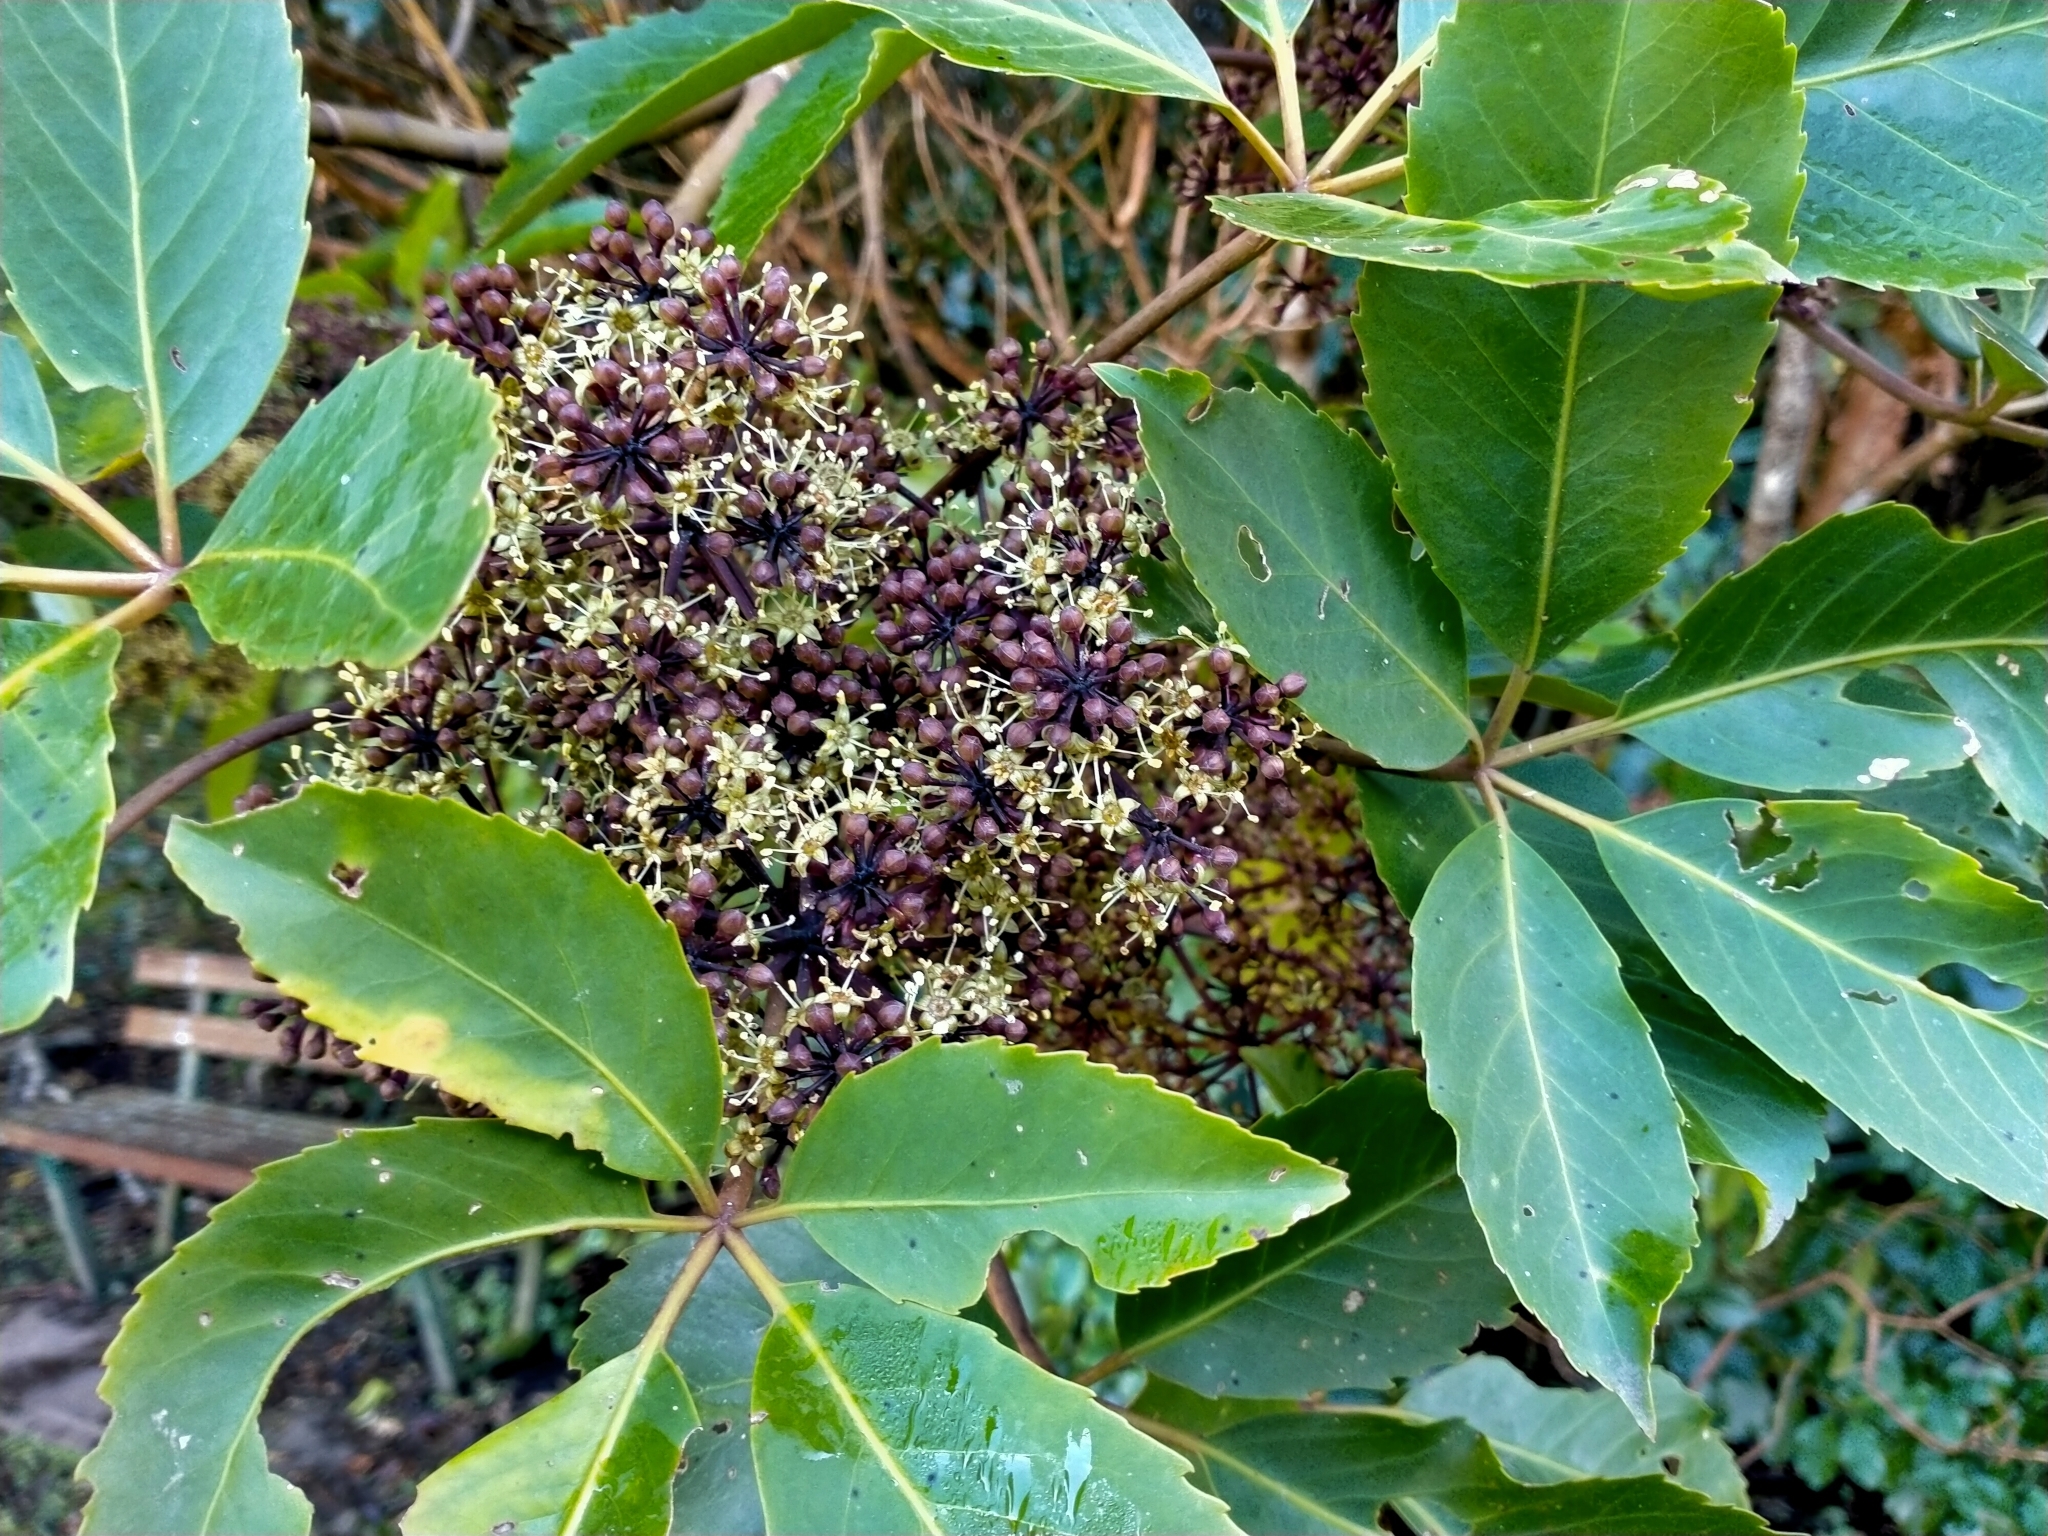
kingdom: Plantae
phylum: Tracheophyta
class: Magnoliopsida
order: Apiales
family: Araliaceae
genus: Neopanax
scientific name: Neopanax arboreus
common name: Five-fingers
